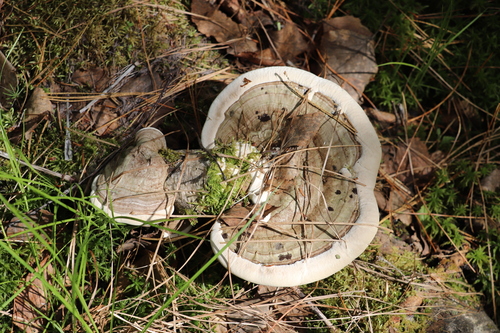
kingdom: Fungi
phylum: Basidiomycota
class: Agaricomycetes
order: Polyporales
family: Polyporaceae
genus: Ganoderma
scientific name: Ganoderma applanatum
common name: Artist's bracket
